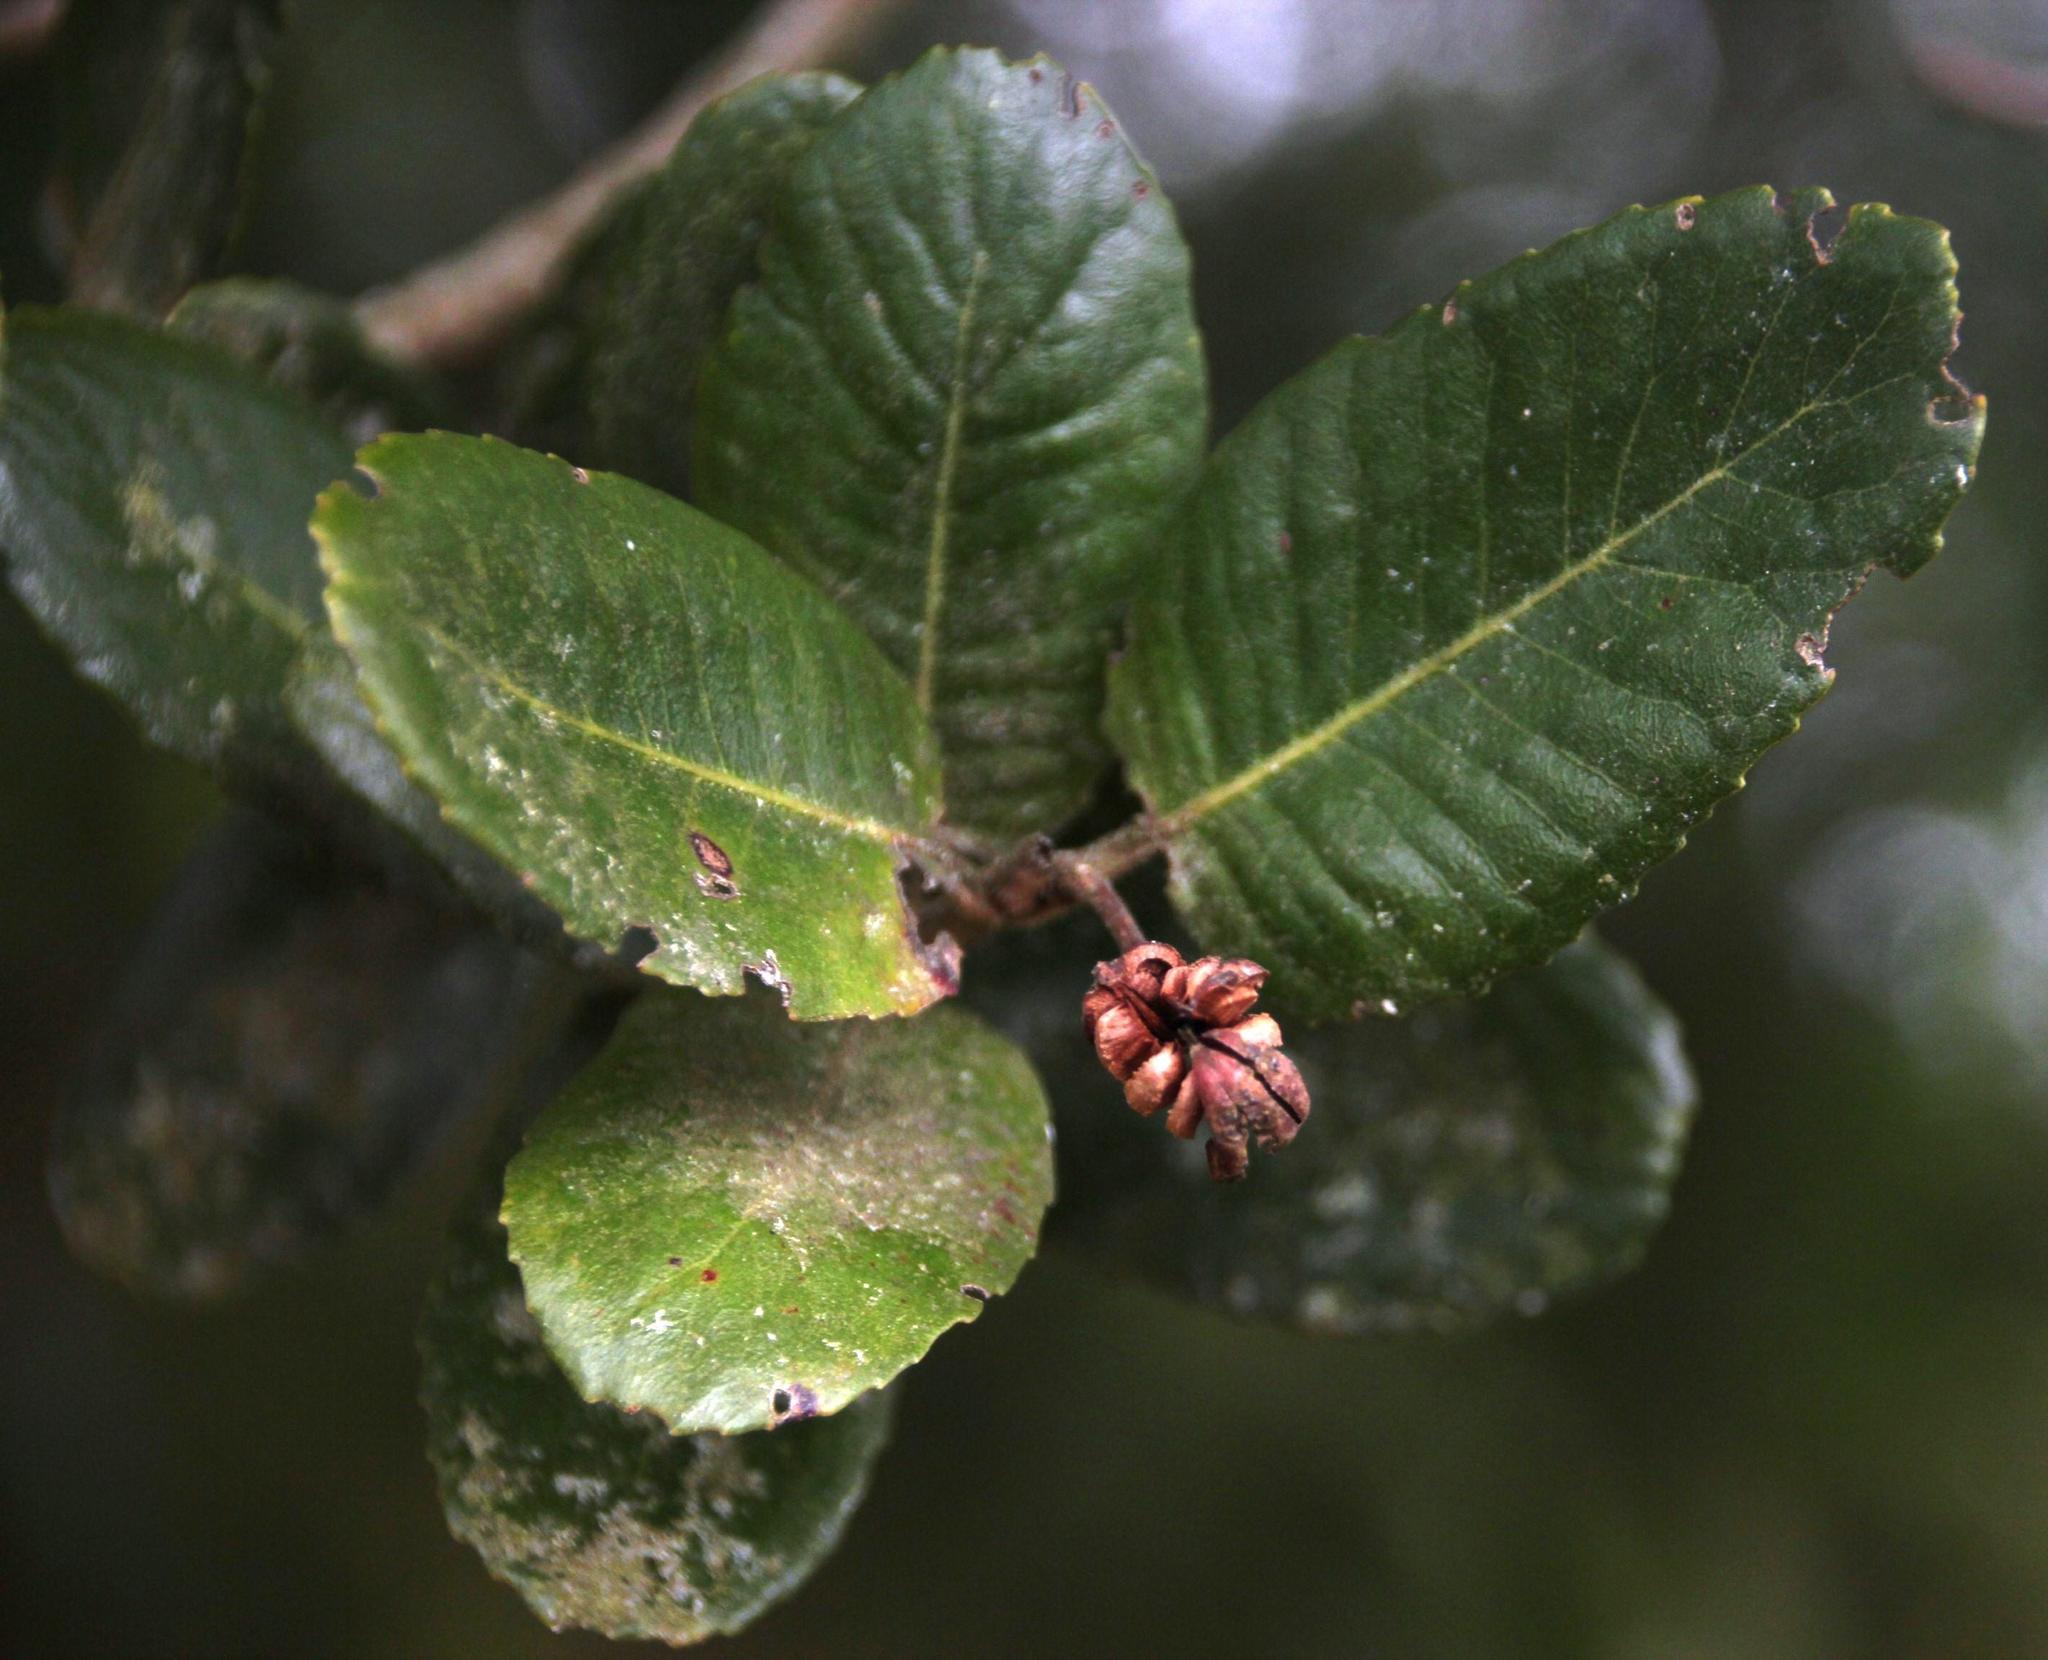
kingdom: Plantae
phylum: Tracheophyta
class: Magnoliopsida
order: Oxalidales
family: Cunoniaceae
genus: Eucryphia
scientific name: Eucryphia cordifolia
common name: Ulmo
